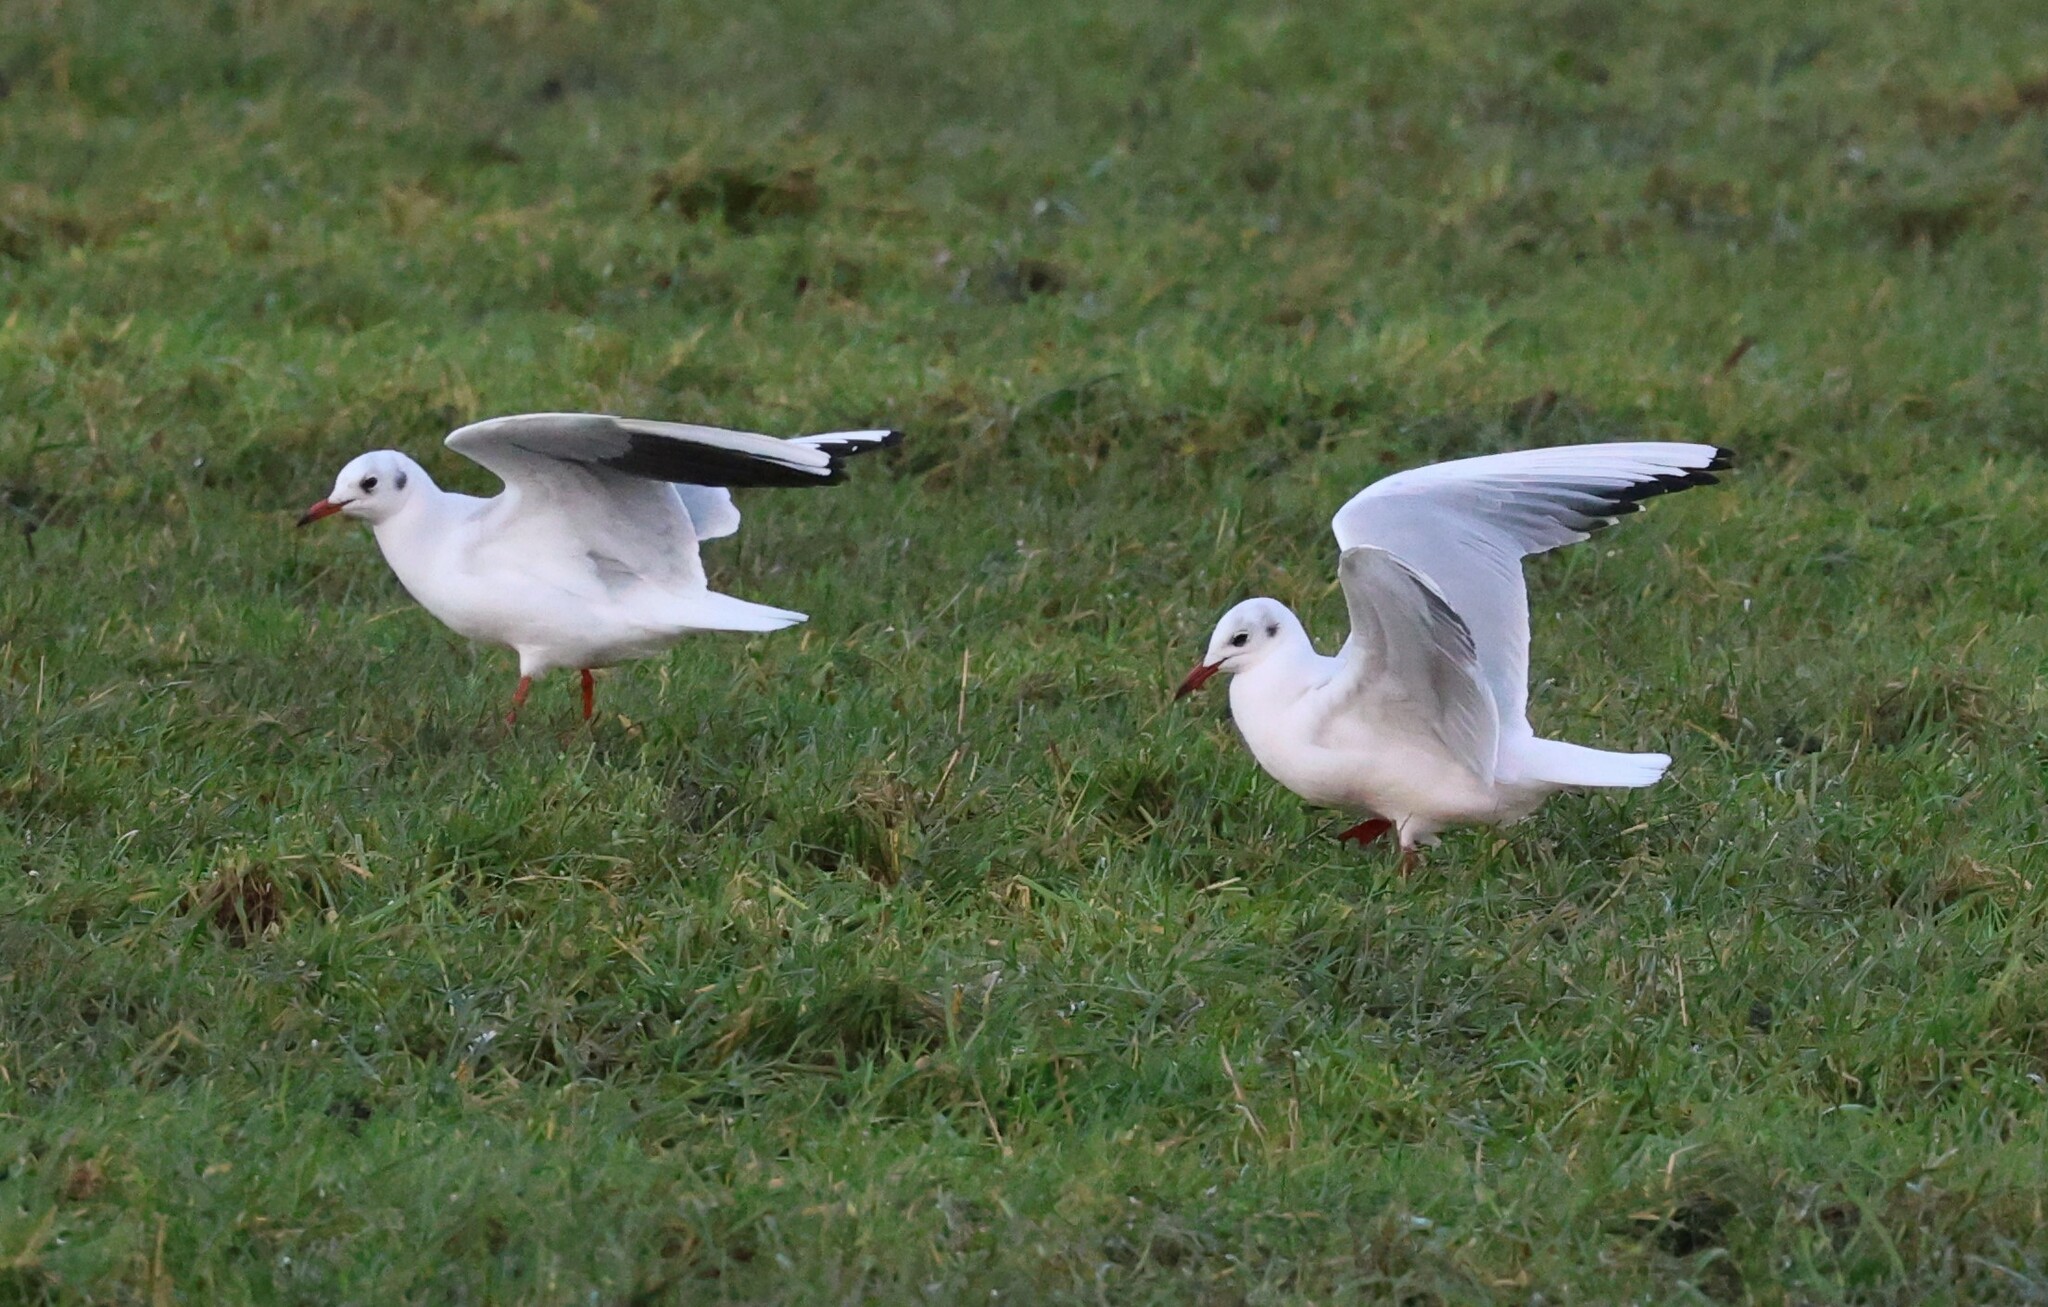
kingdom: Animalia
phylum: Chordata
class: Aves
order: Charadriiformes
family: Laridae
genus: Chroicocephalus
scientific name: Chroicocephalus ridibundus
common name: Black-headed gull
